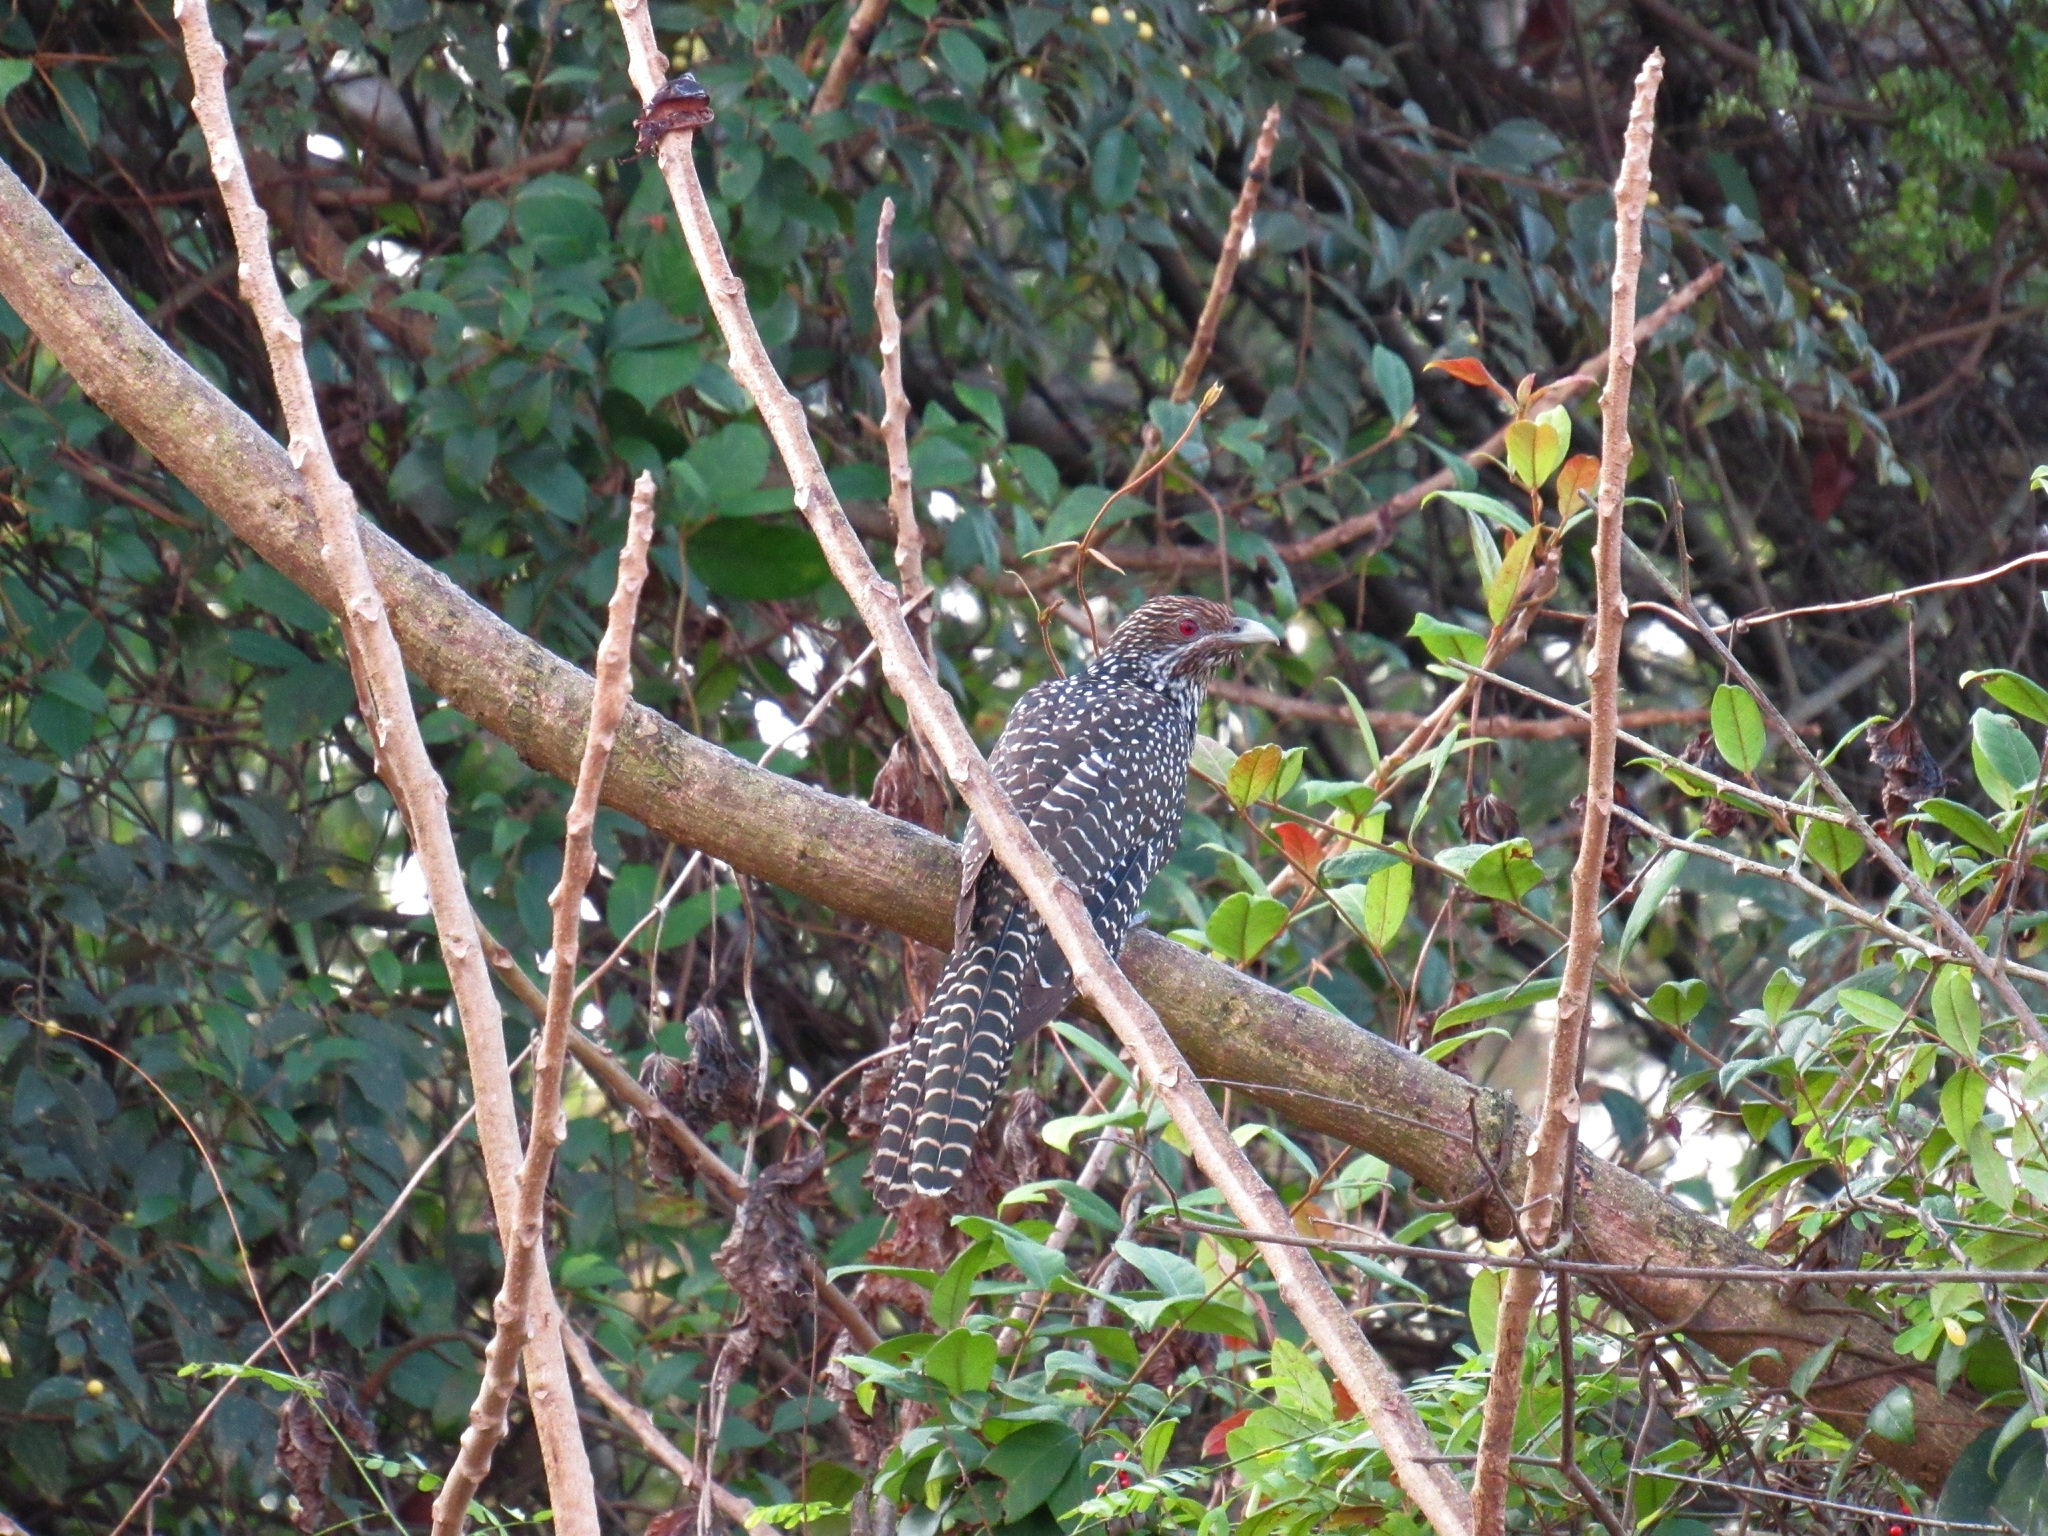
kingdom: Animalia
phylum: Chordata
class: Aves
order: Cuculiformes
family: Cuculidae
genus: Eudynamys
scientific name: Eudynamys scolopaceus
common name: Asian koel
